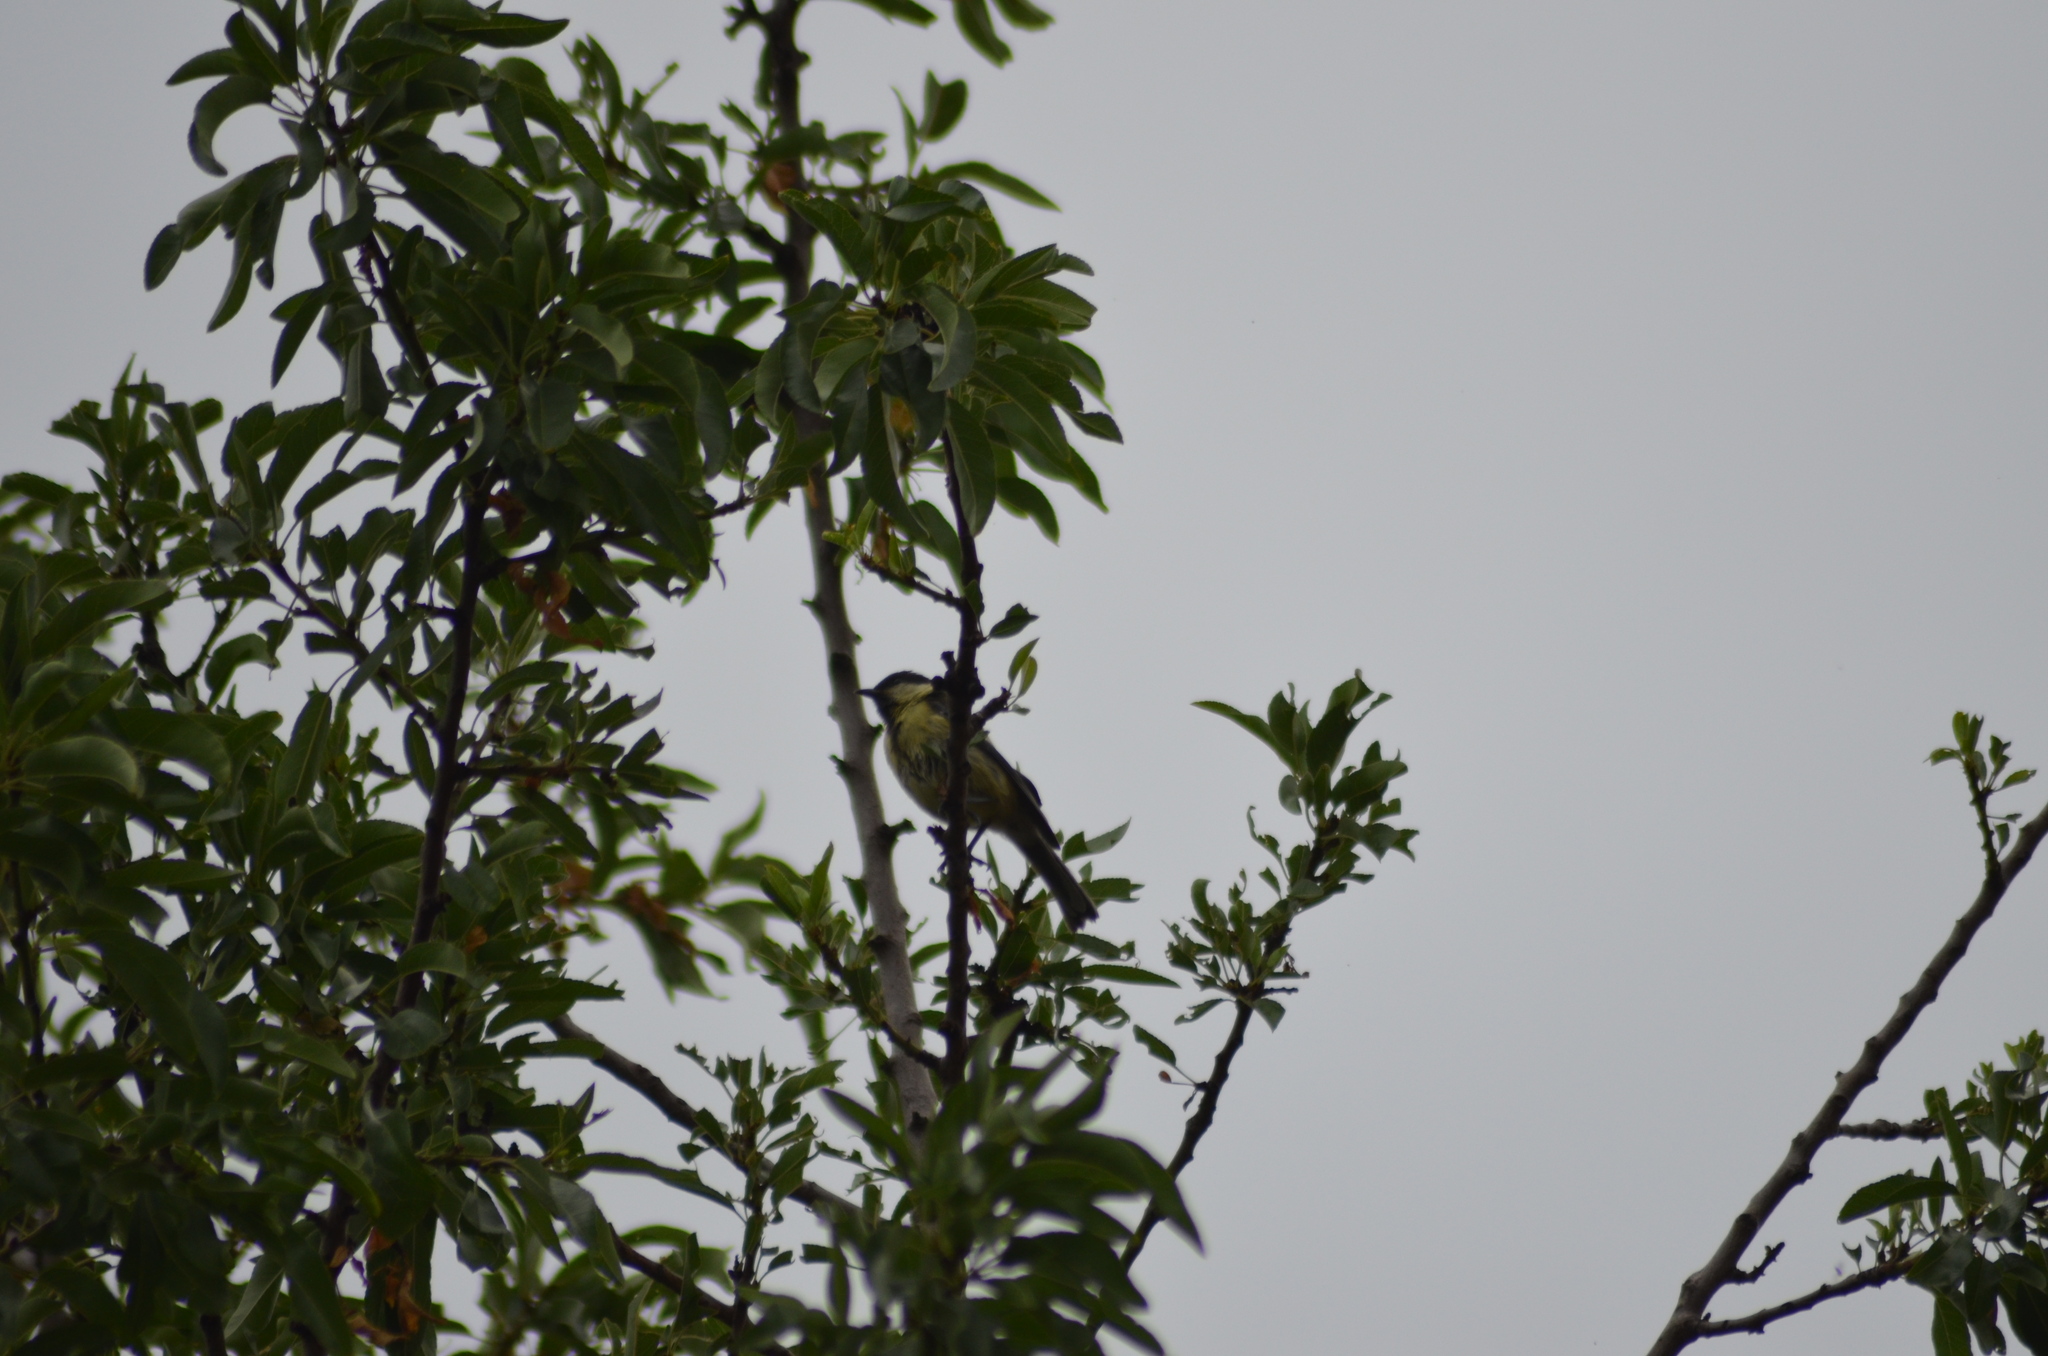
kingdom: Animalia
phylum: Chordata
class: Aves
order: Passeriformes
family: Paridae
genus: Parus
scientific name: Parus major
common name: Great tit
